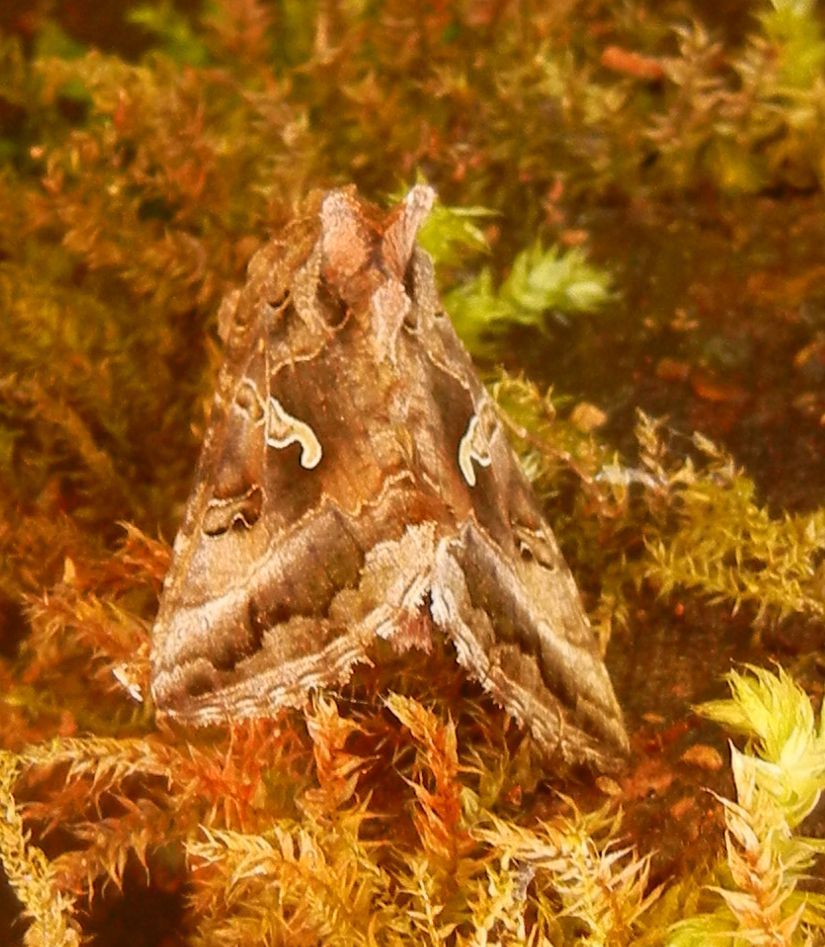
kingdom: Animalia
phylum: Arthropoda
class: Insecta
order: Lepidoptera
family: Noctuidae
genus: Autographa
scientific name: Autographa gamma
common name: Silver y
